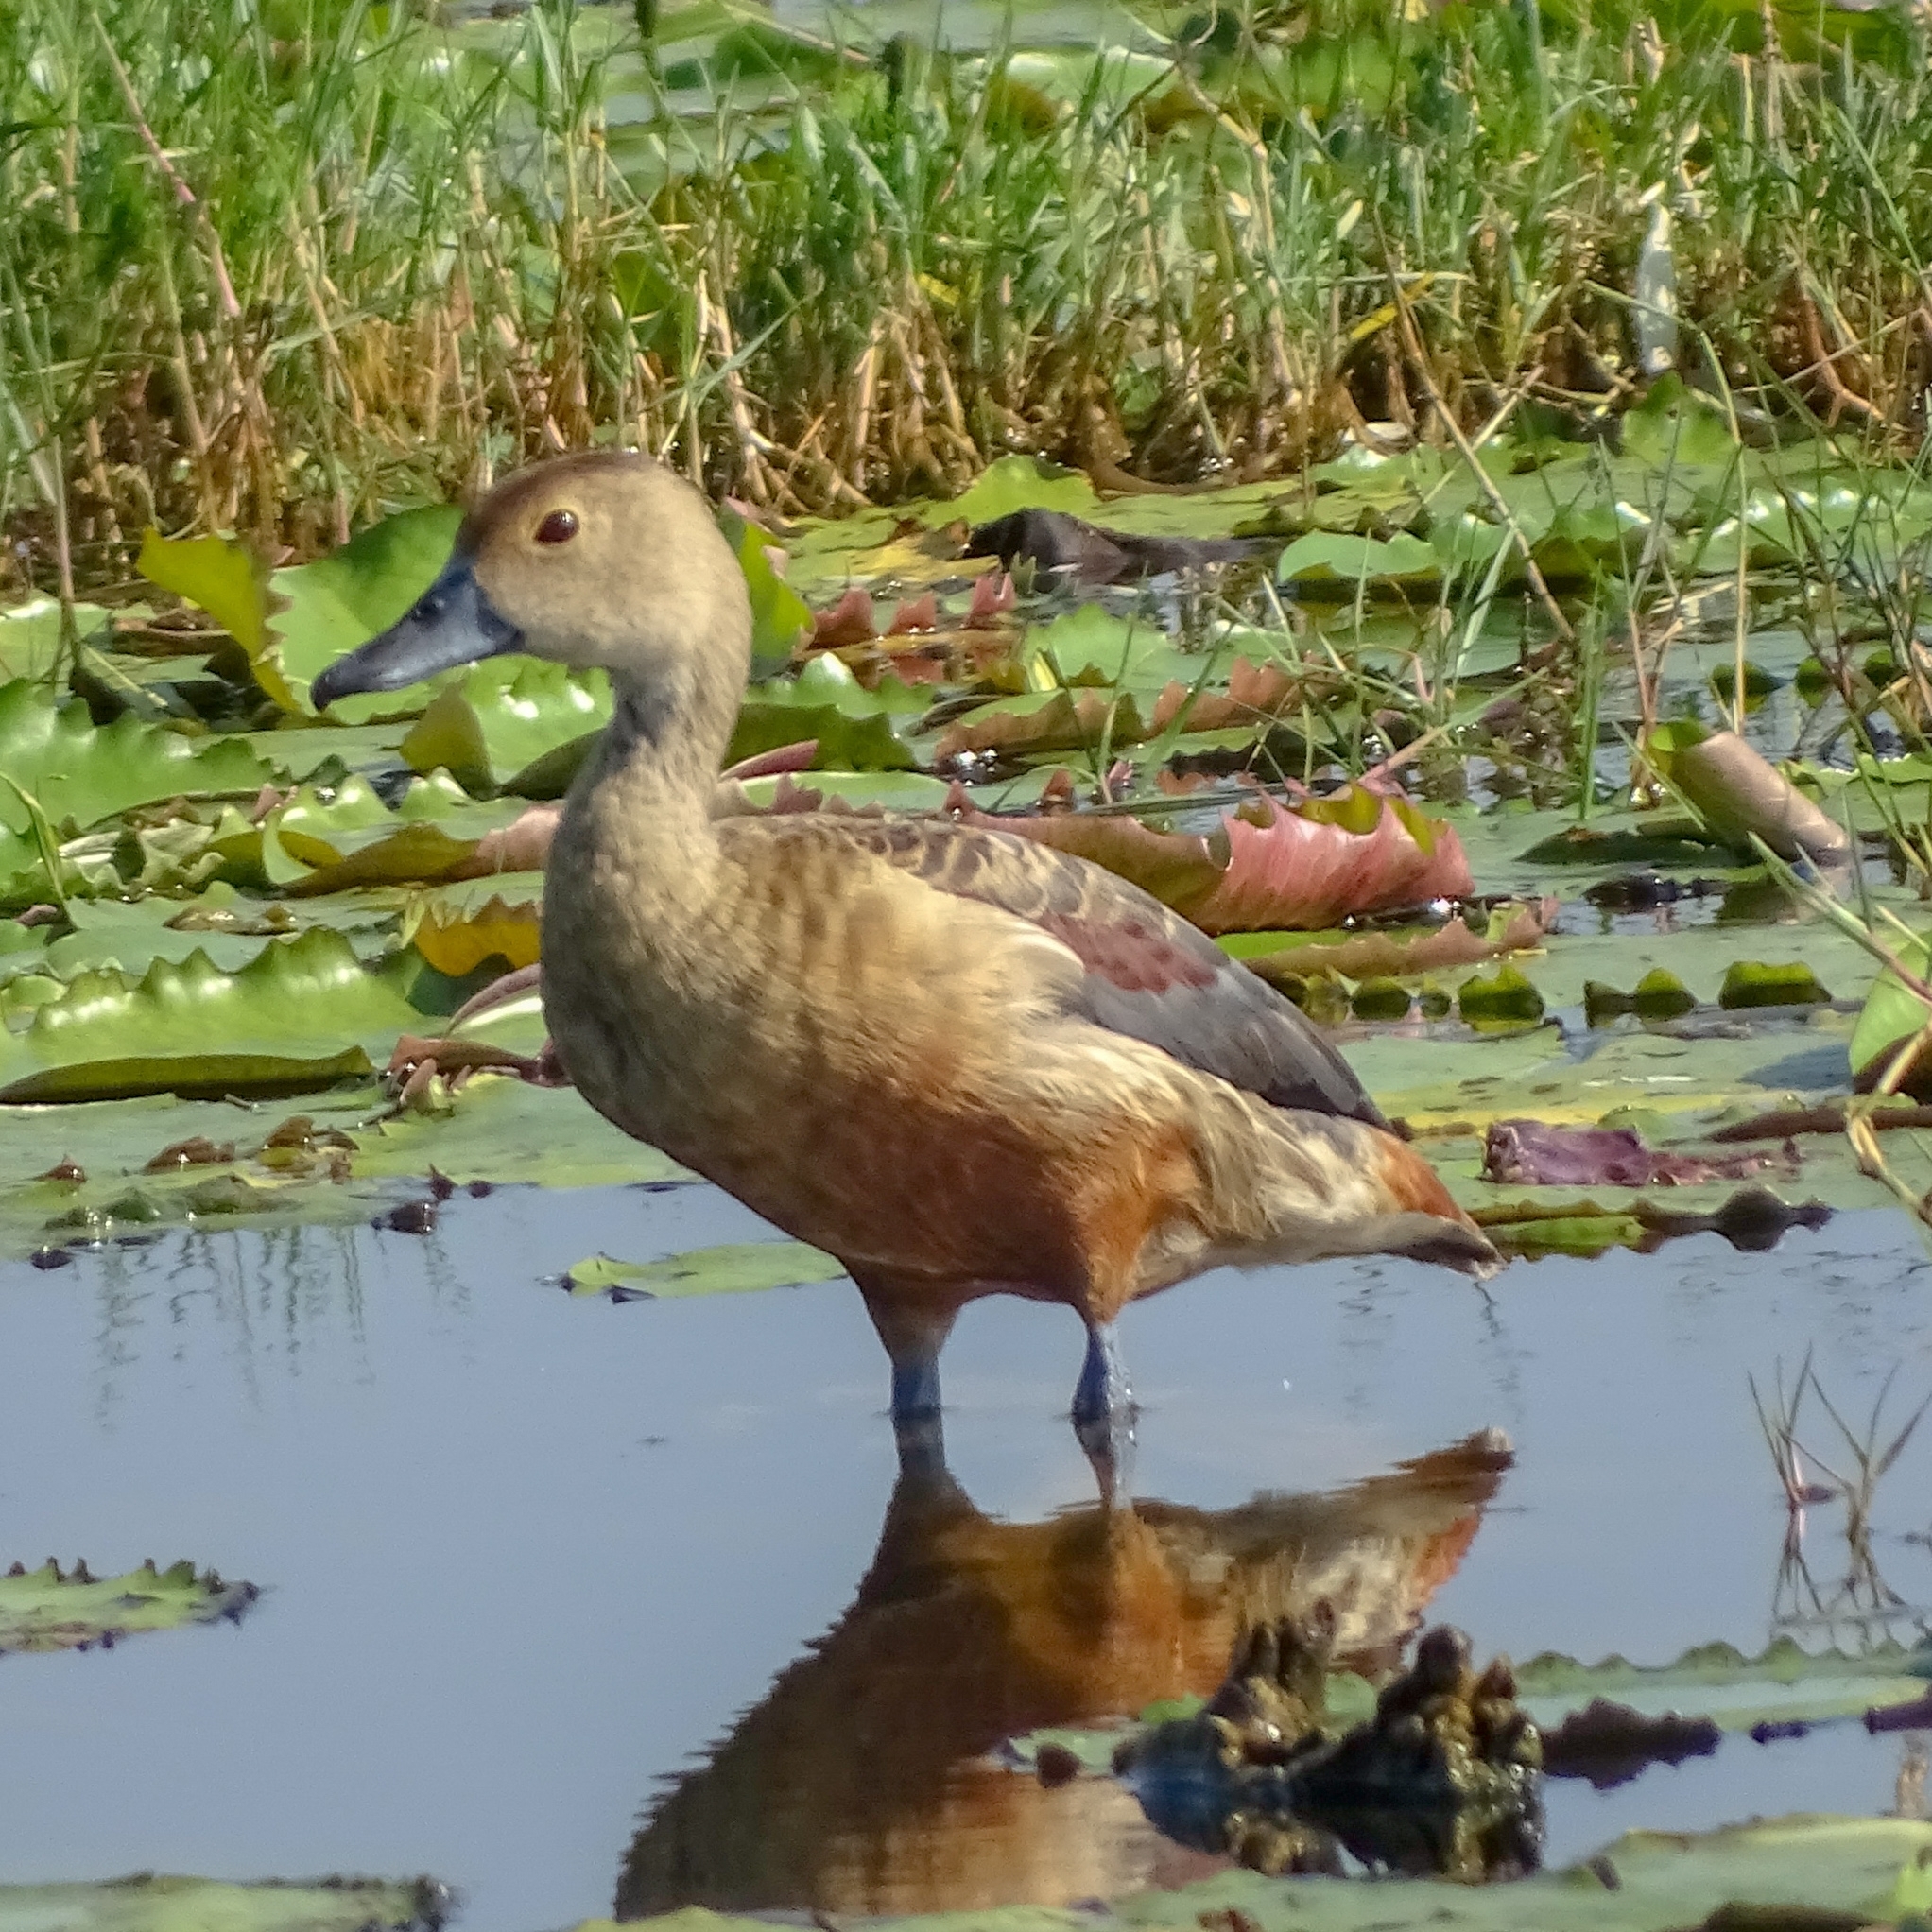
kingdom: Animalia
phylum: Chordata
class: Aves
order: Anseriformes
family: Anatidae
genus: Dendrocygna
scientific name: Dendrocygna javanica
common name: Lesser whistling-duck
